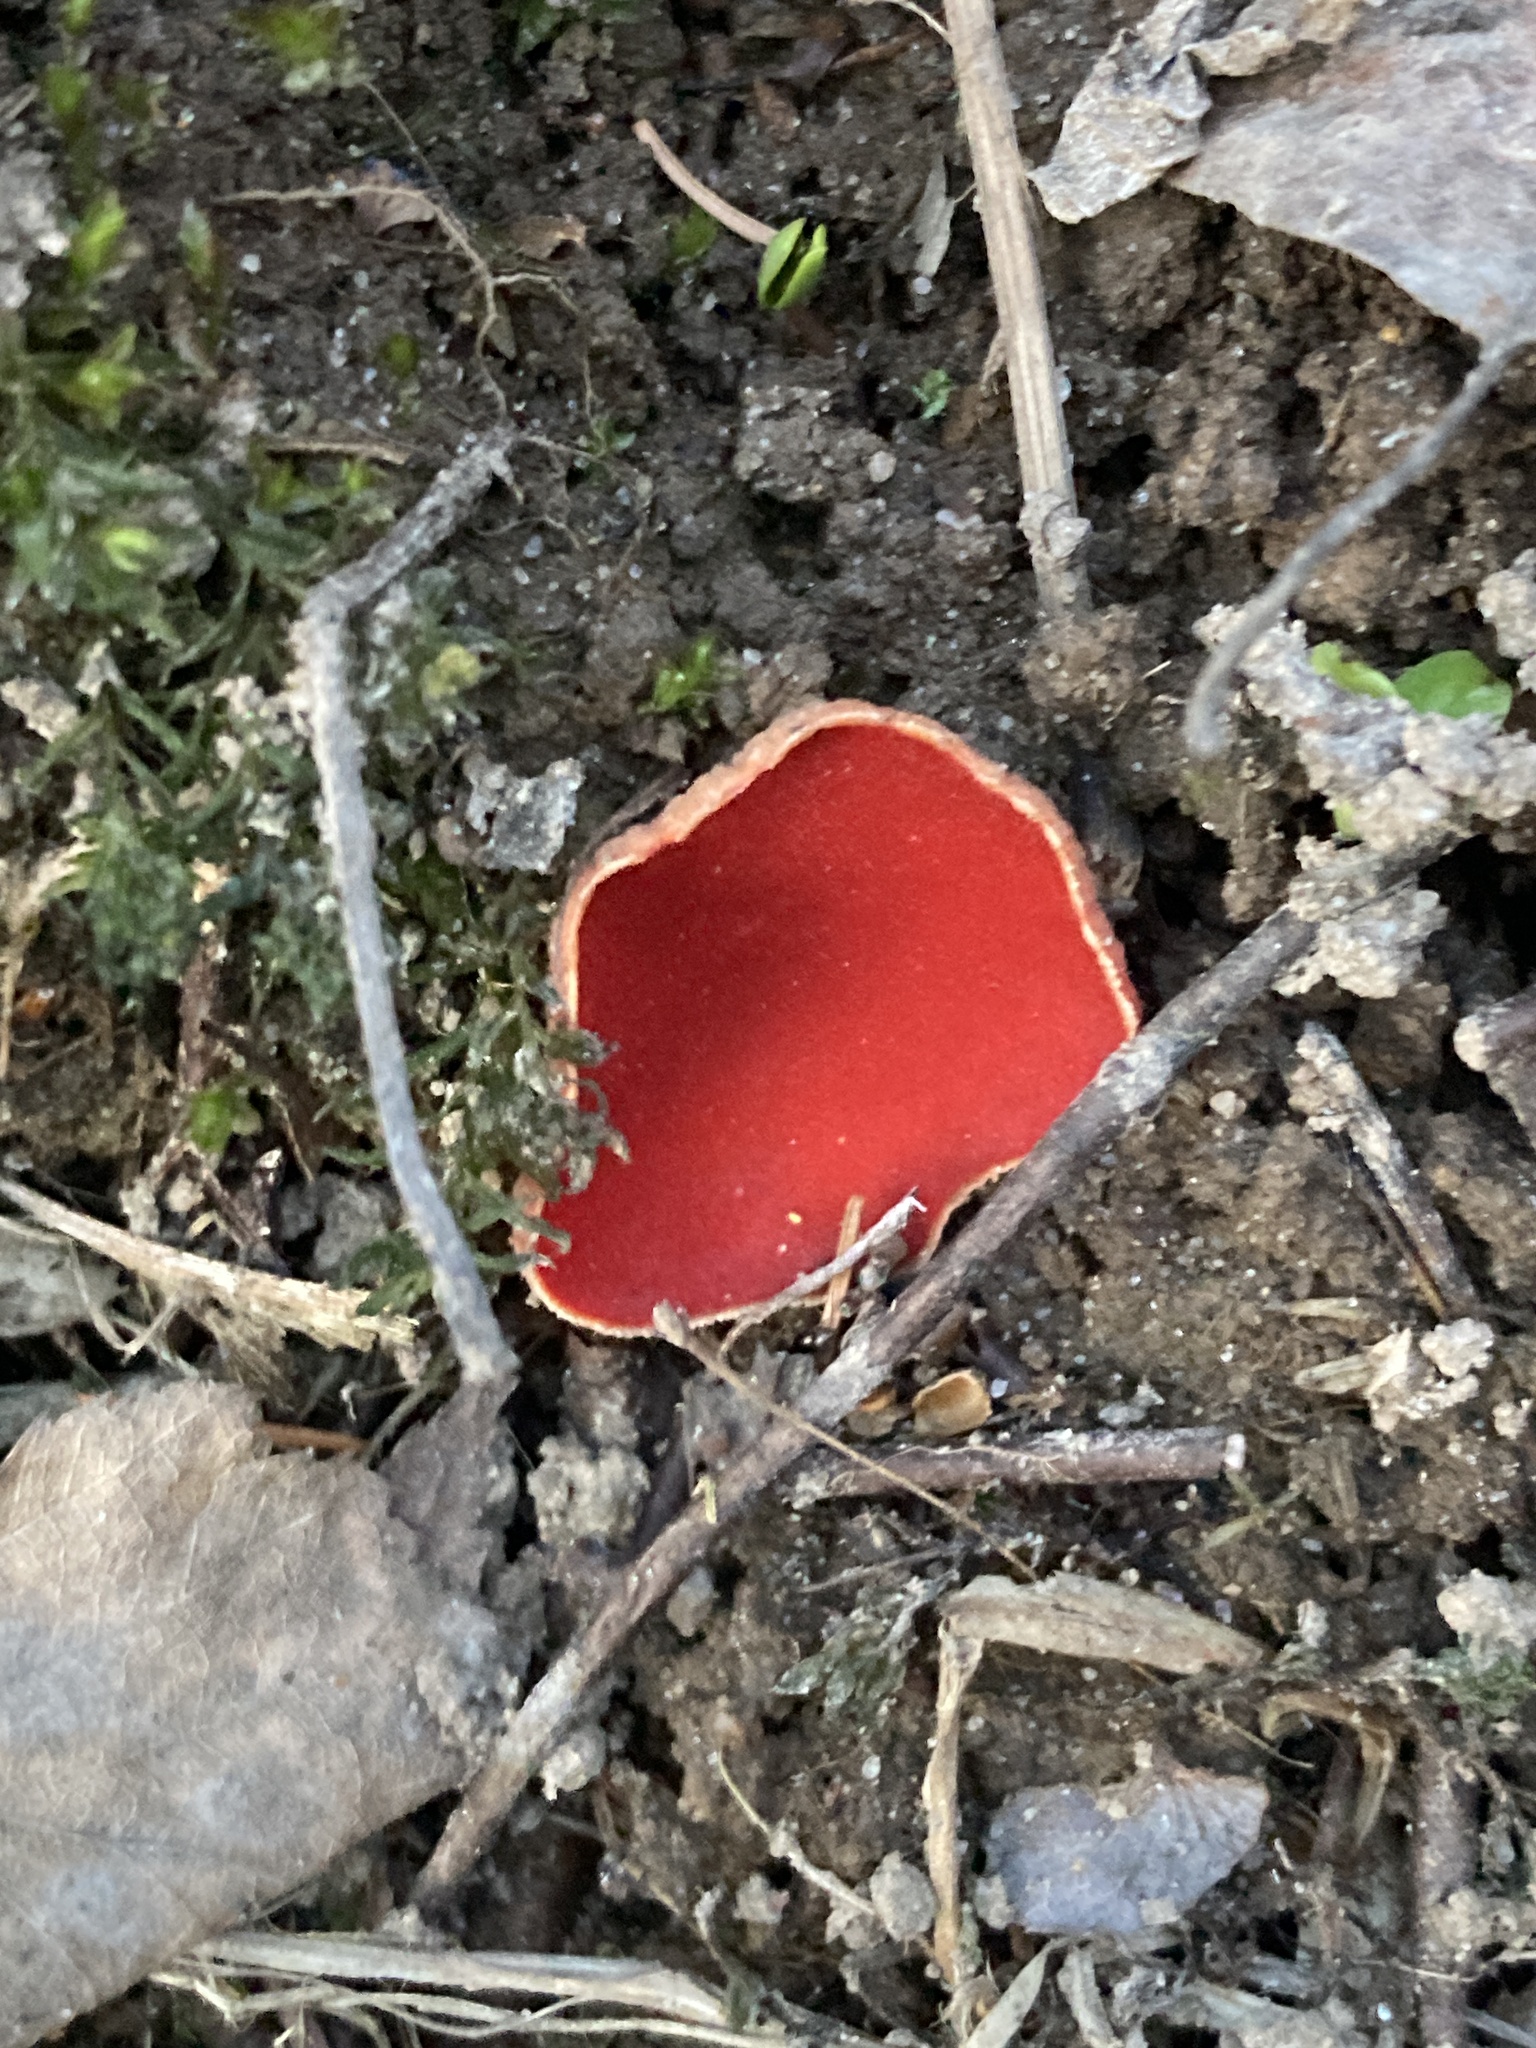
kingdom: Fungi
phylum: Ascomycota
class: Pezizomycetes
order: Pezizales
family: Sarcoscyphaceae
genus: Sarcoscypha
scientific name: Sarcoscypha austriaca
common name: Scarlet elfcup
